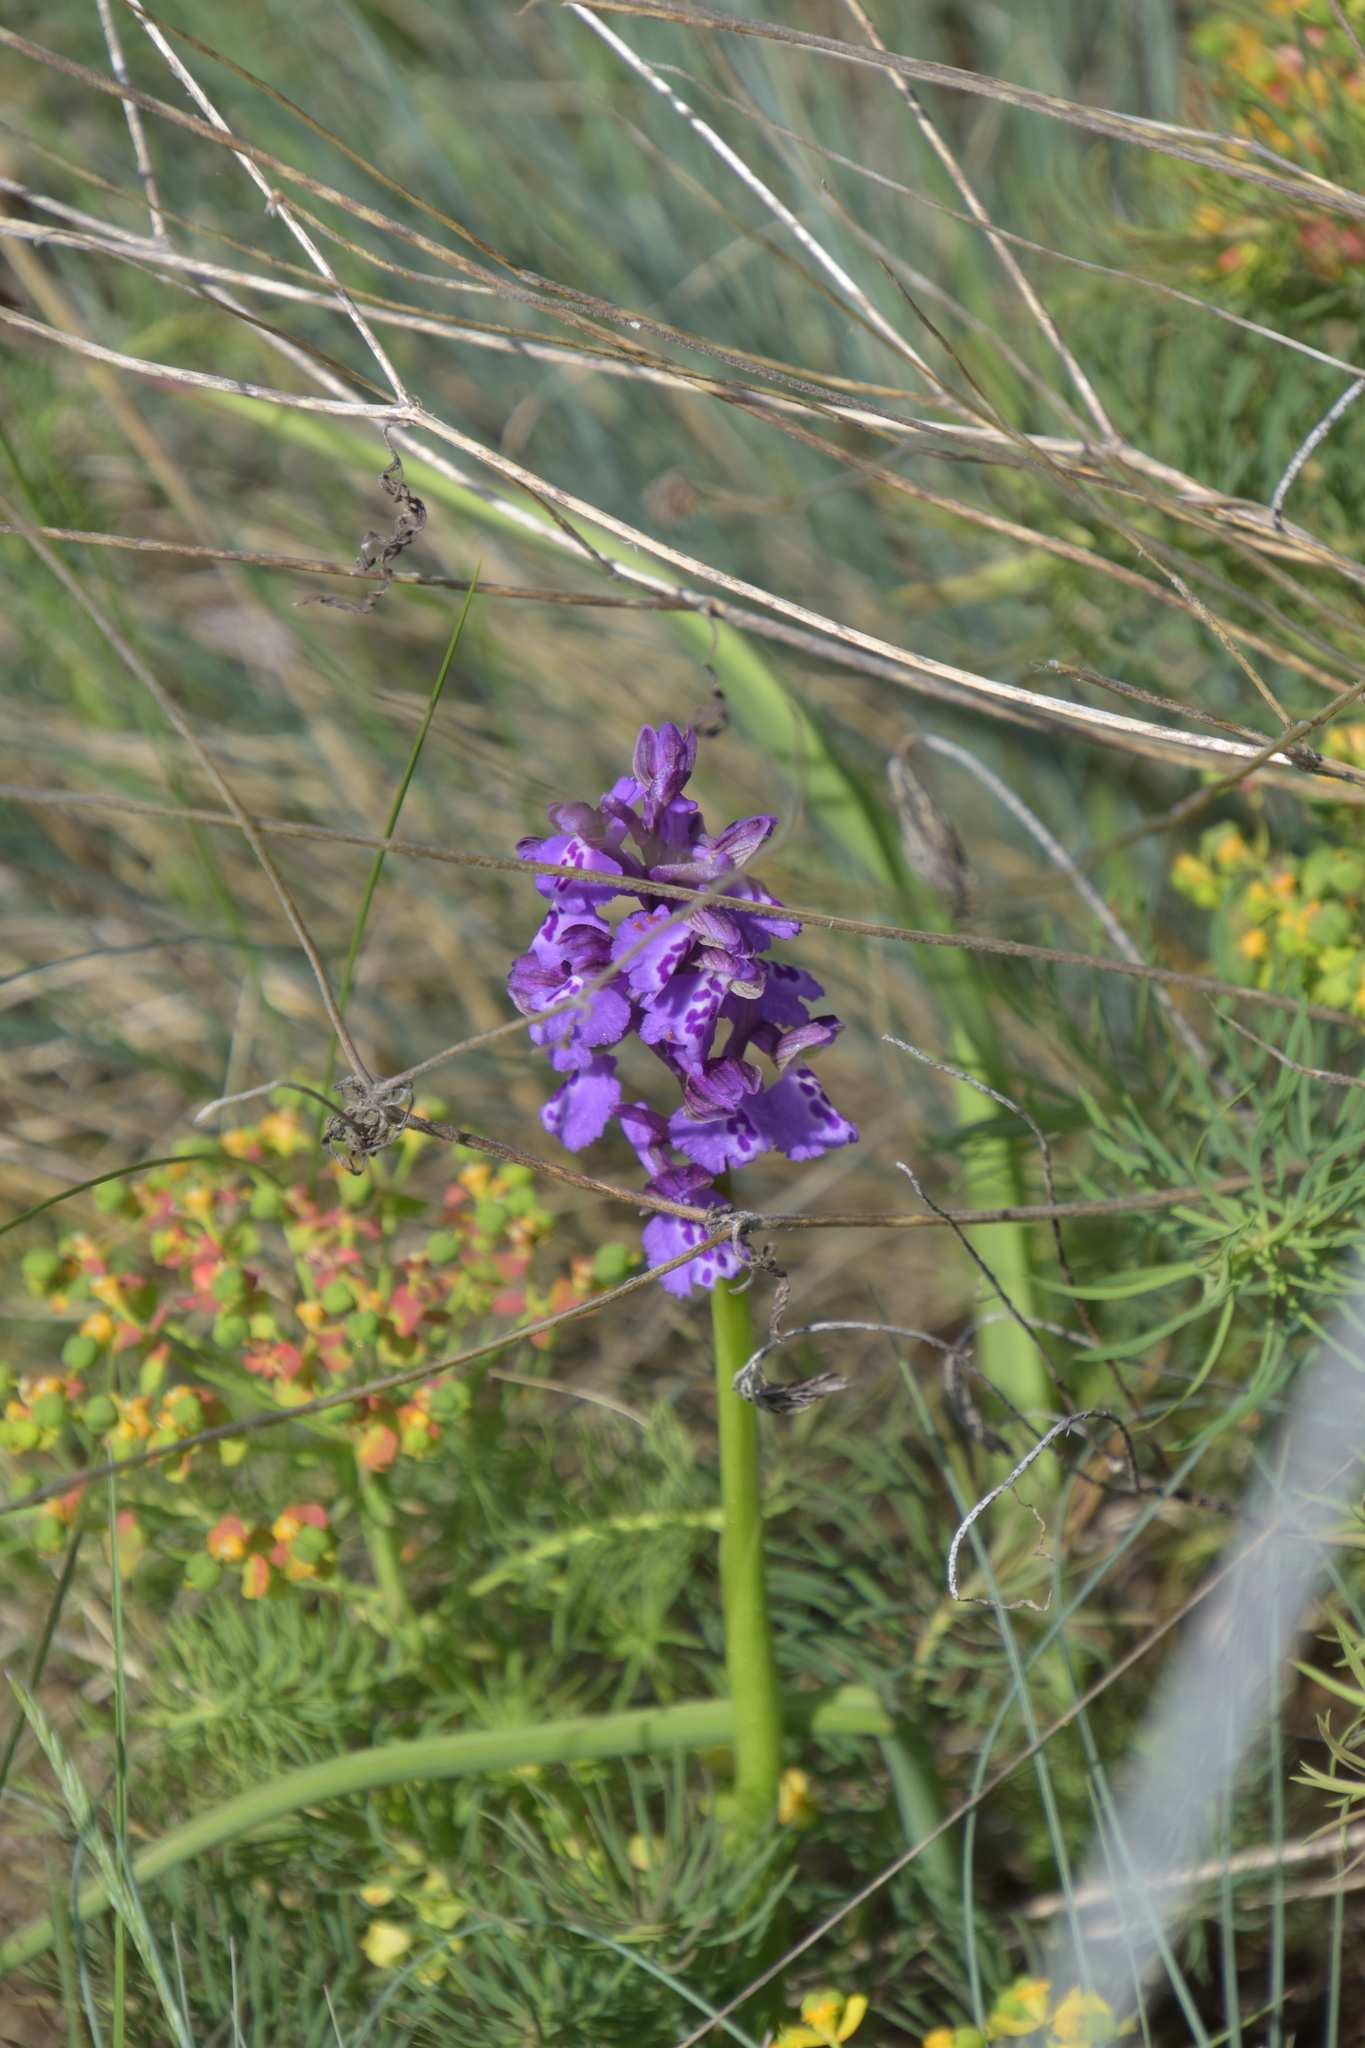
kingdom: Plantae
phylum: Tracheophyta
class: Liliopsida
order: Asparagales
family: Orchidaceae
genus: Anacamptis
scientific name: Anacamptis morio
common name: Green-winged orchid
